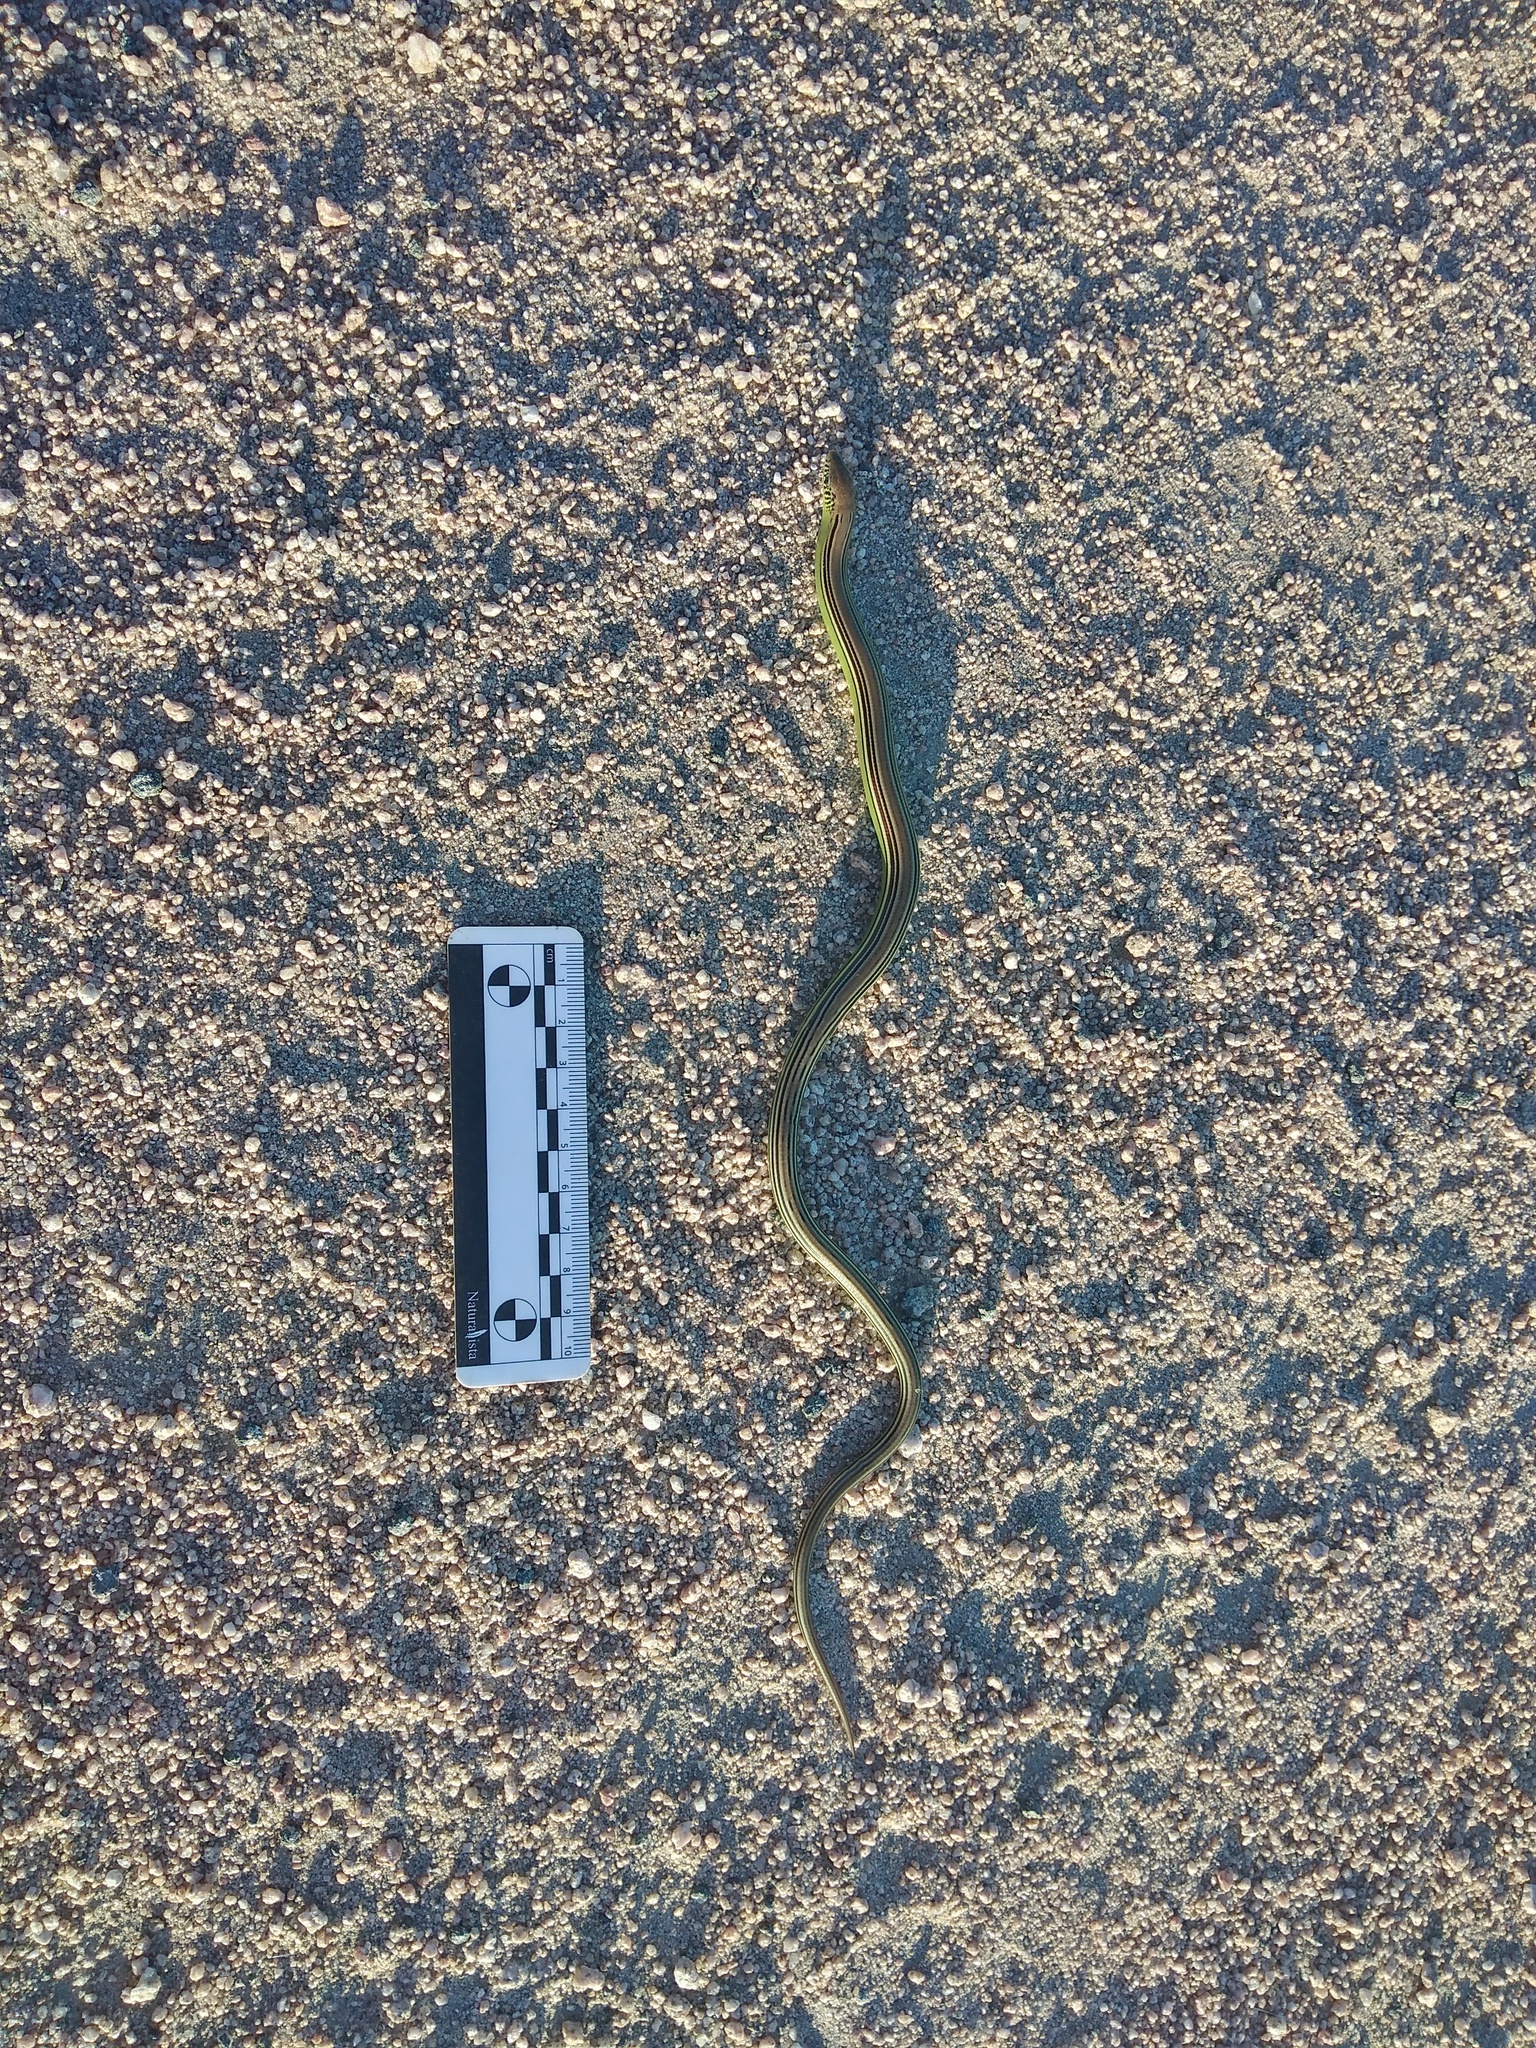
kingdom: Animalia
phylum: Chordata
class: Squamata
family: Diploglossidae
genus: Ophiodes
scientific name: Ophiodes striatus
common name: Striped worm lizard
